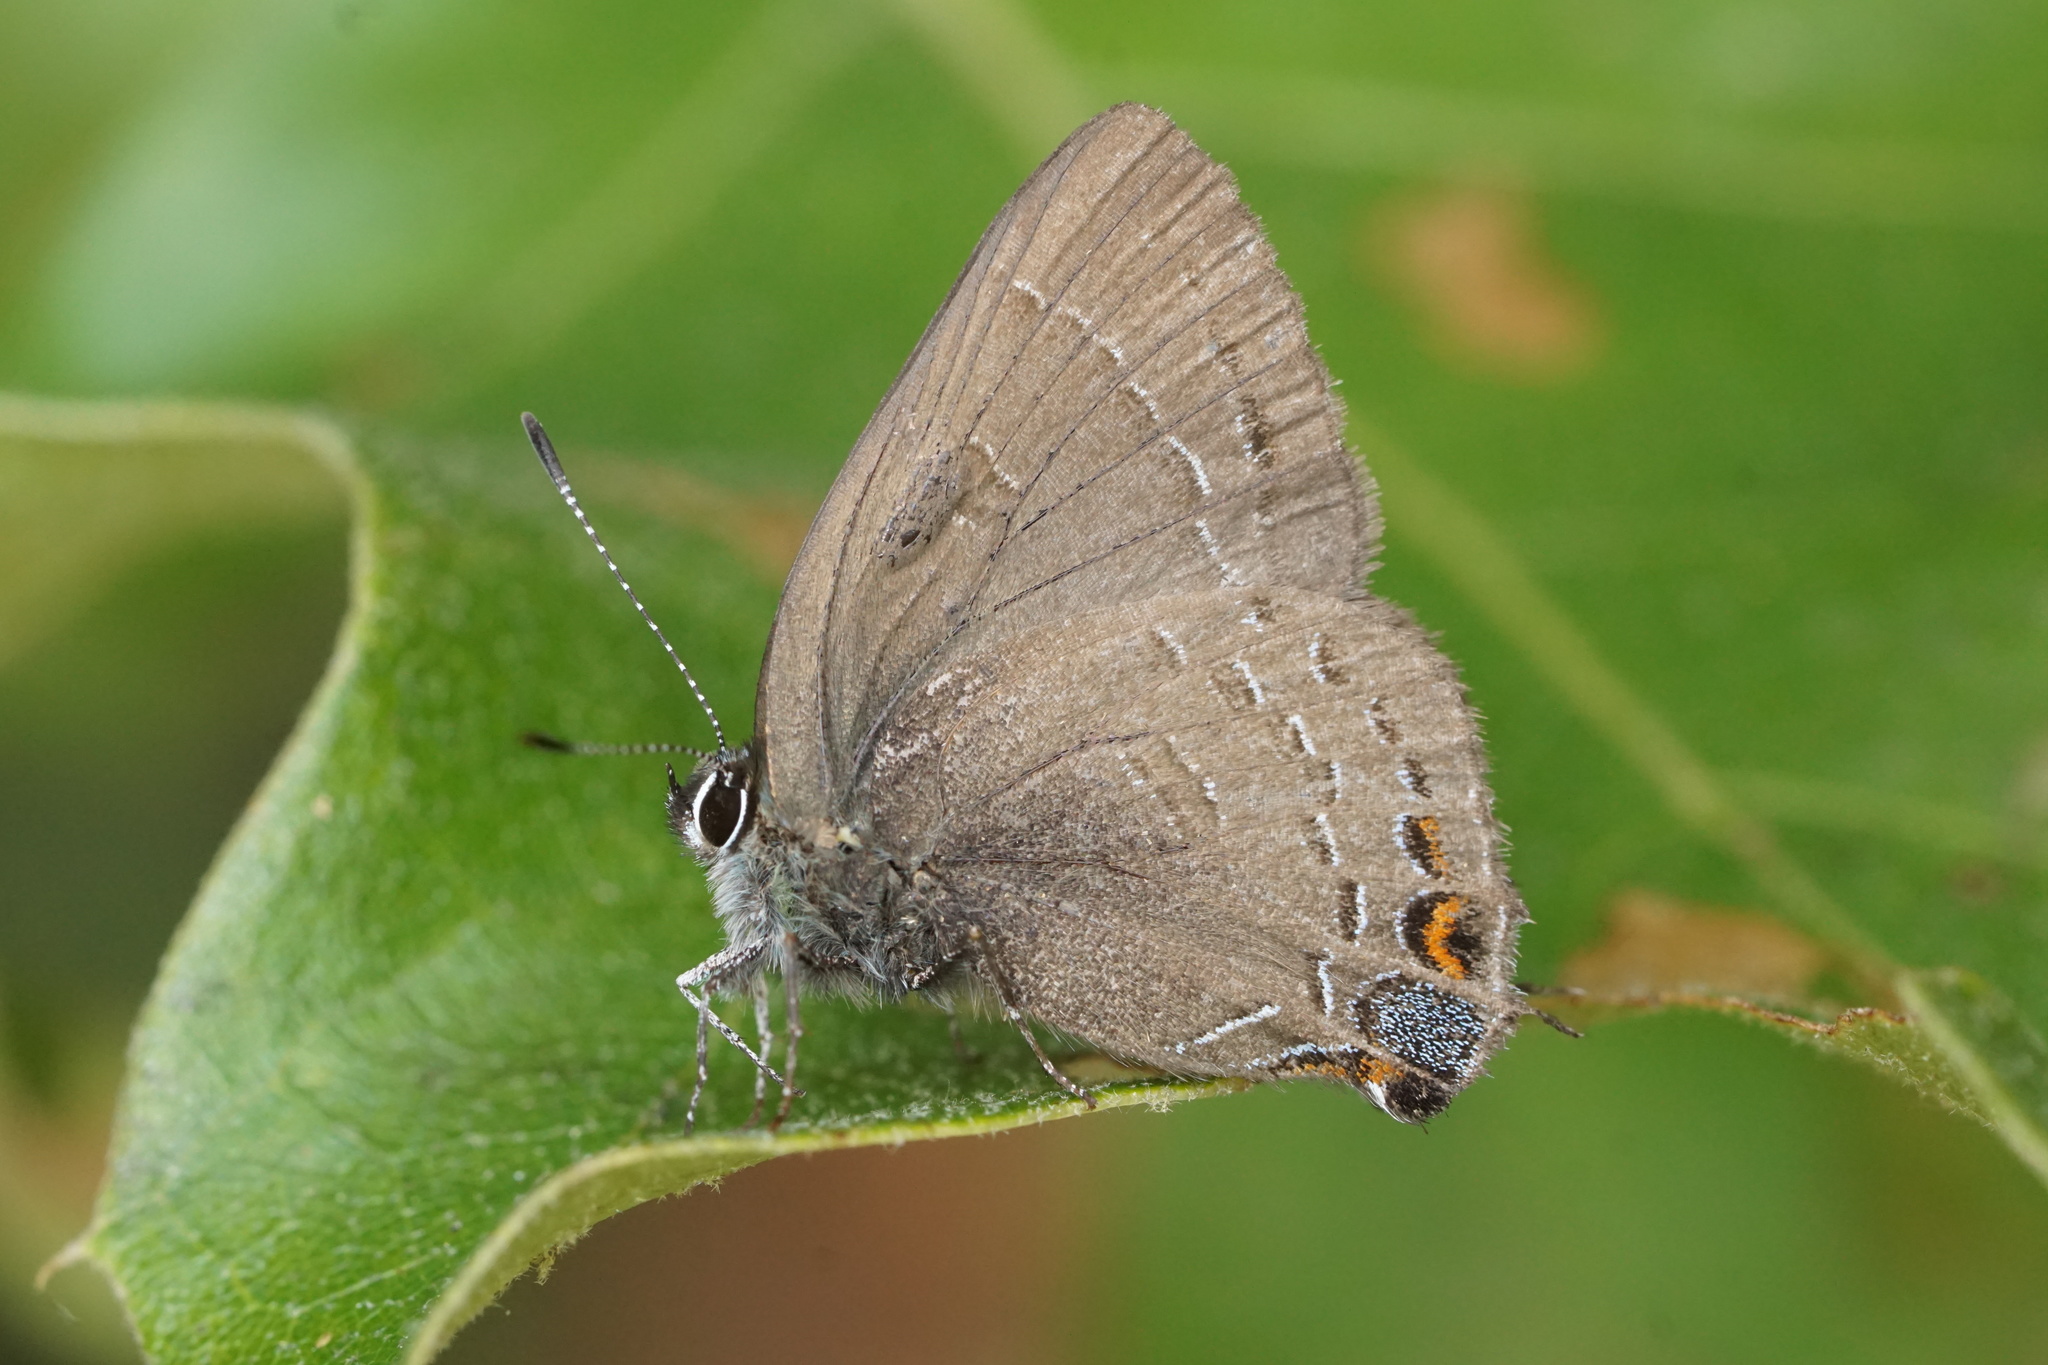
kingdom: Animalia
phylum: Arthropoda
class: Insecta
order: Lepidoptera
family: Lycaenidae
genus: Satyrium
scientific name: Satyrium calanus
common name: Banded hairstreak
